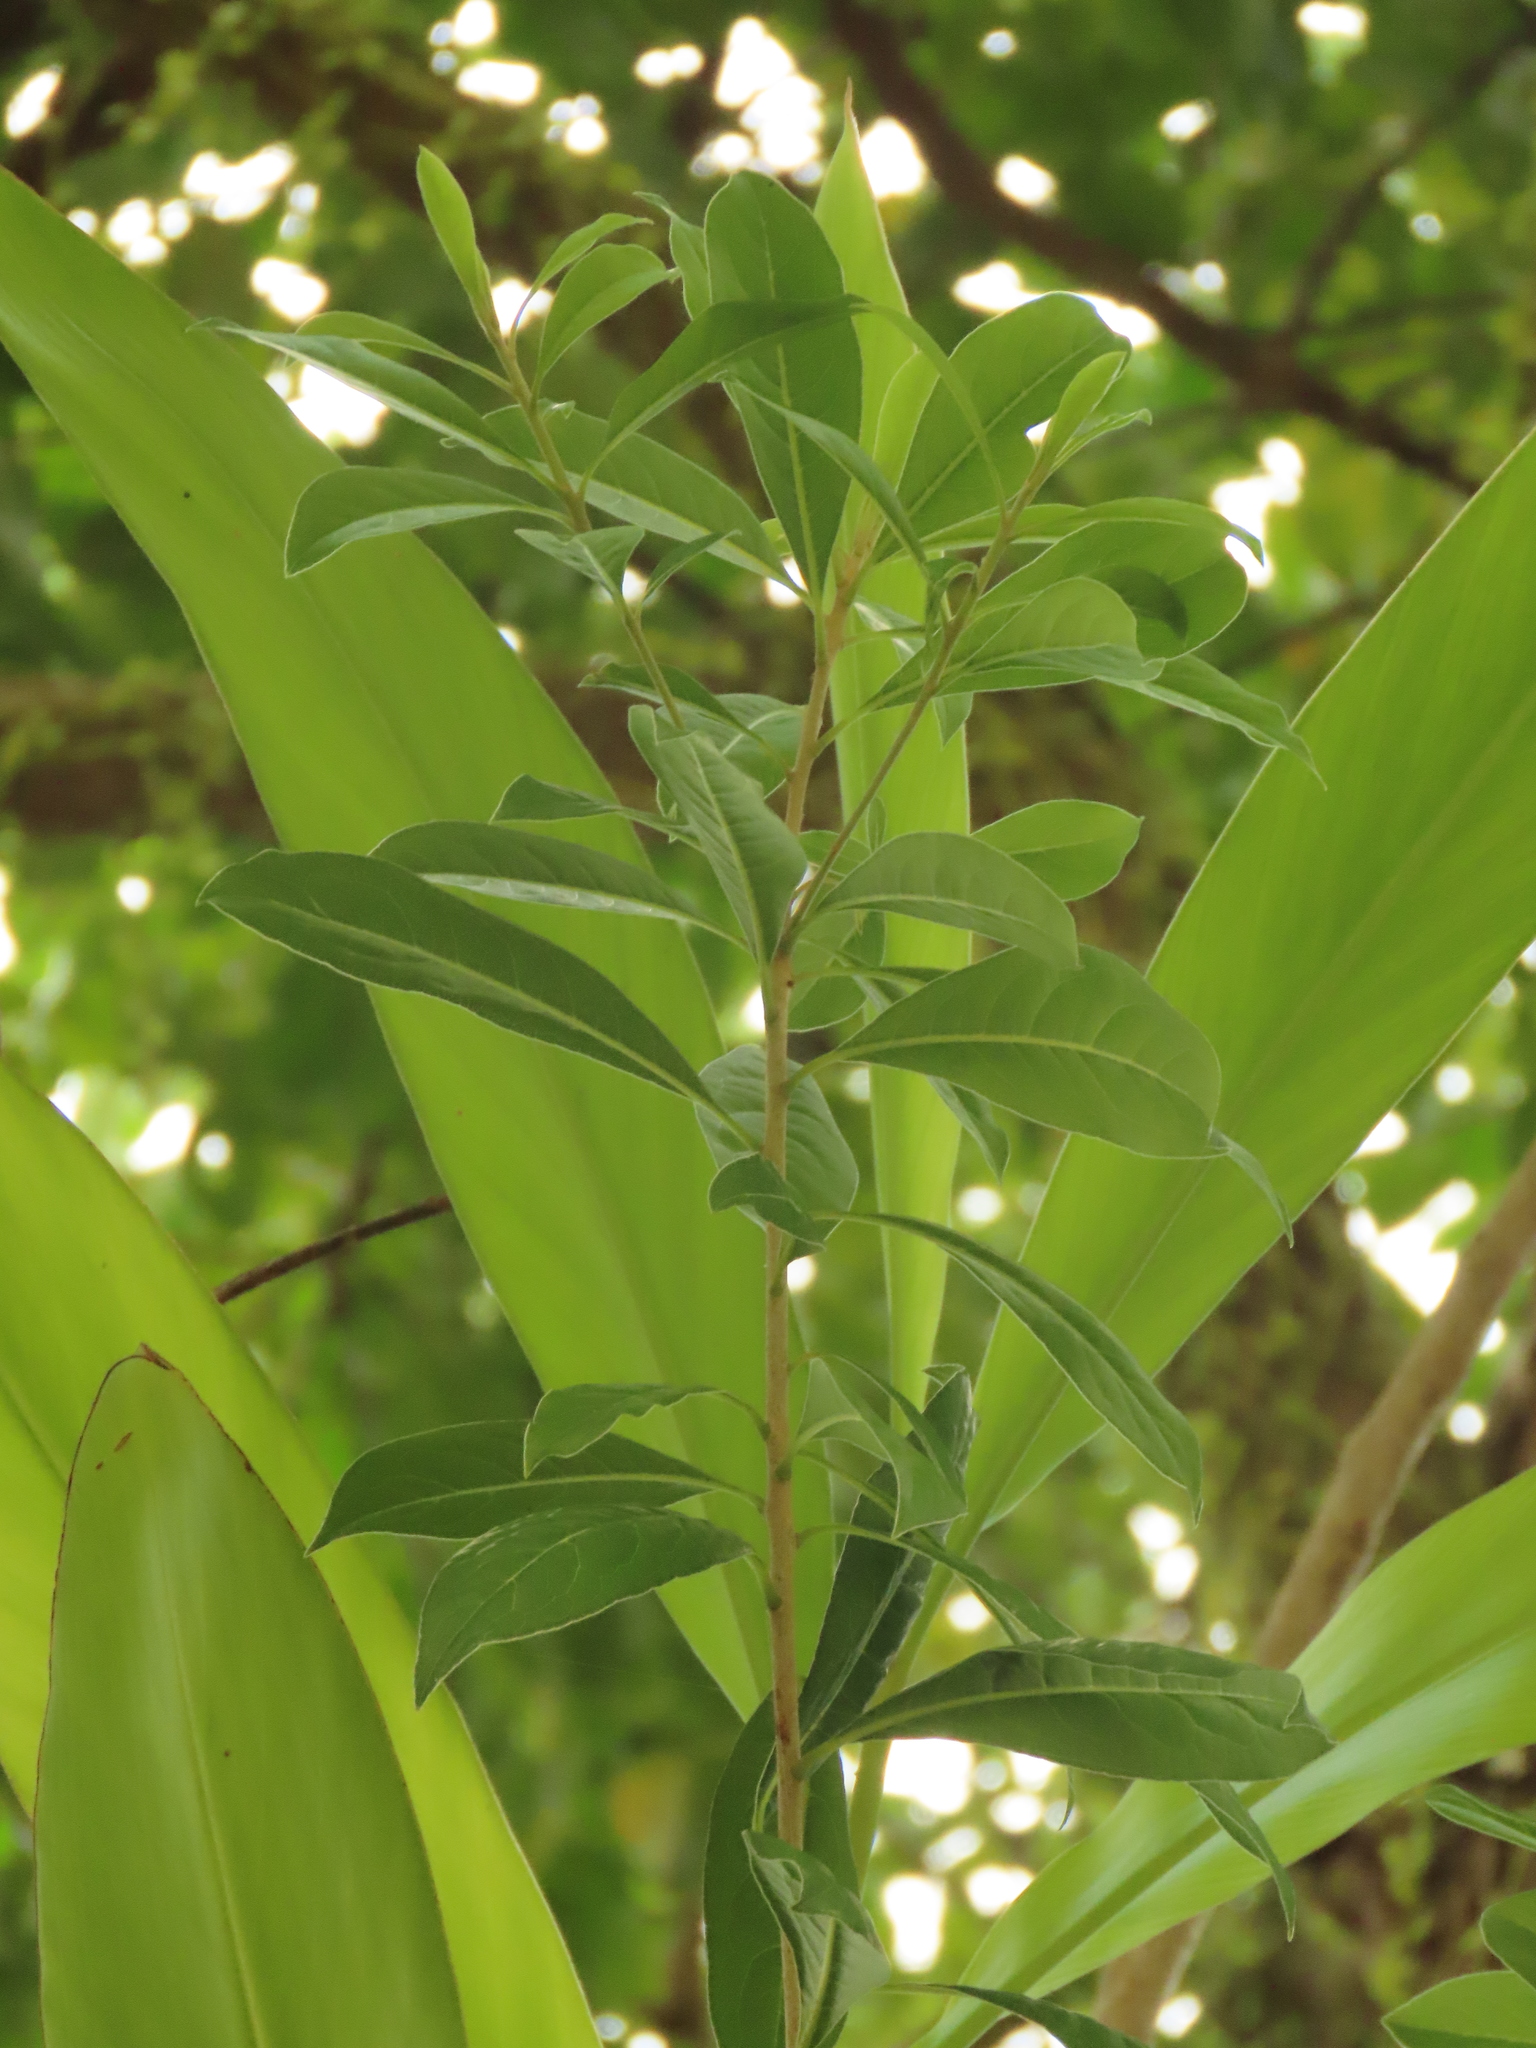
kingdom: Plantae
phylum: Tracheophyta
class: Magnoliopsida
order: Apiales
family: Pittosporaceae
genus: Pittosporum
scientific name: Pittosporum pentandrum
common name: Taiwanese cheesewood
